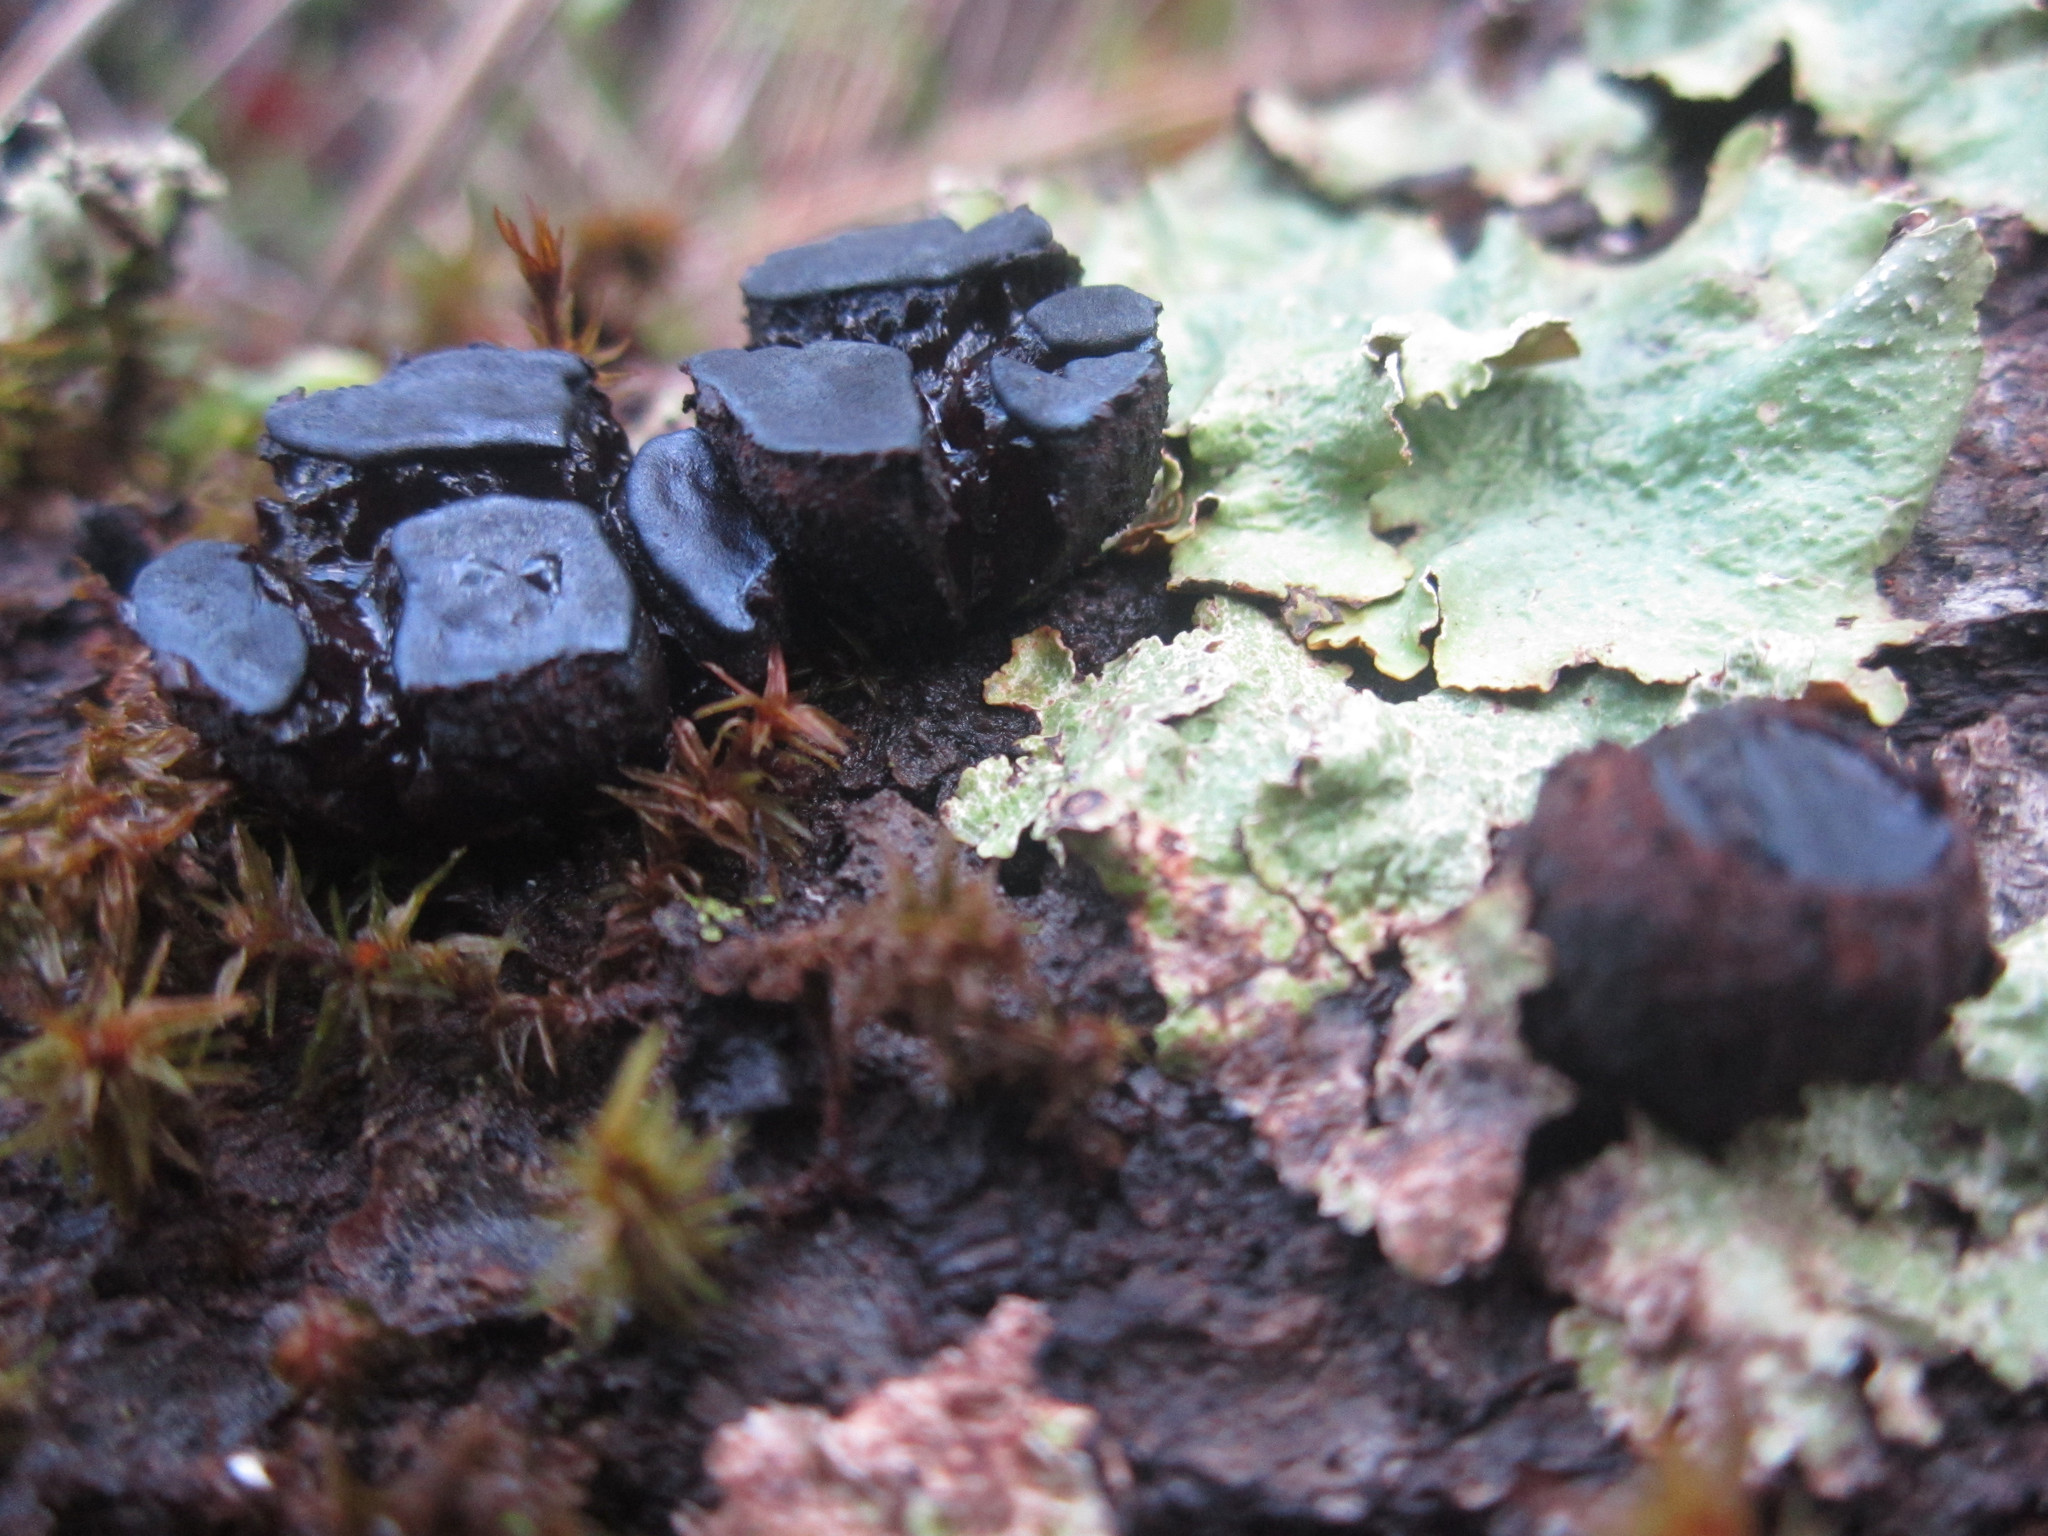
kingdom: Fungi
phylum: Ascomycota
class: Leotiomycetes
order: Phacidiales
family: Phacidiaceae
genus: Bulgaria
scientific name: Bulgaria inquinans
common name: Black bulgar
